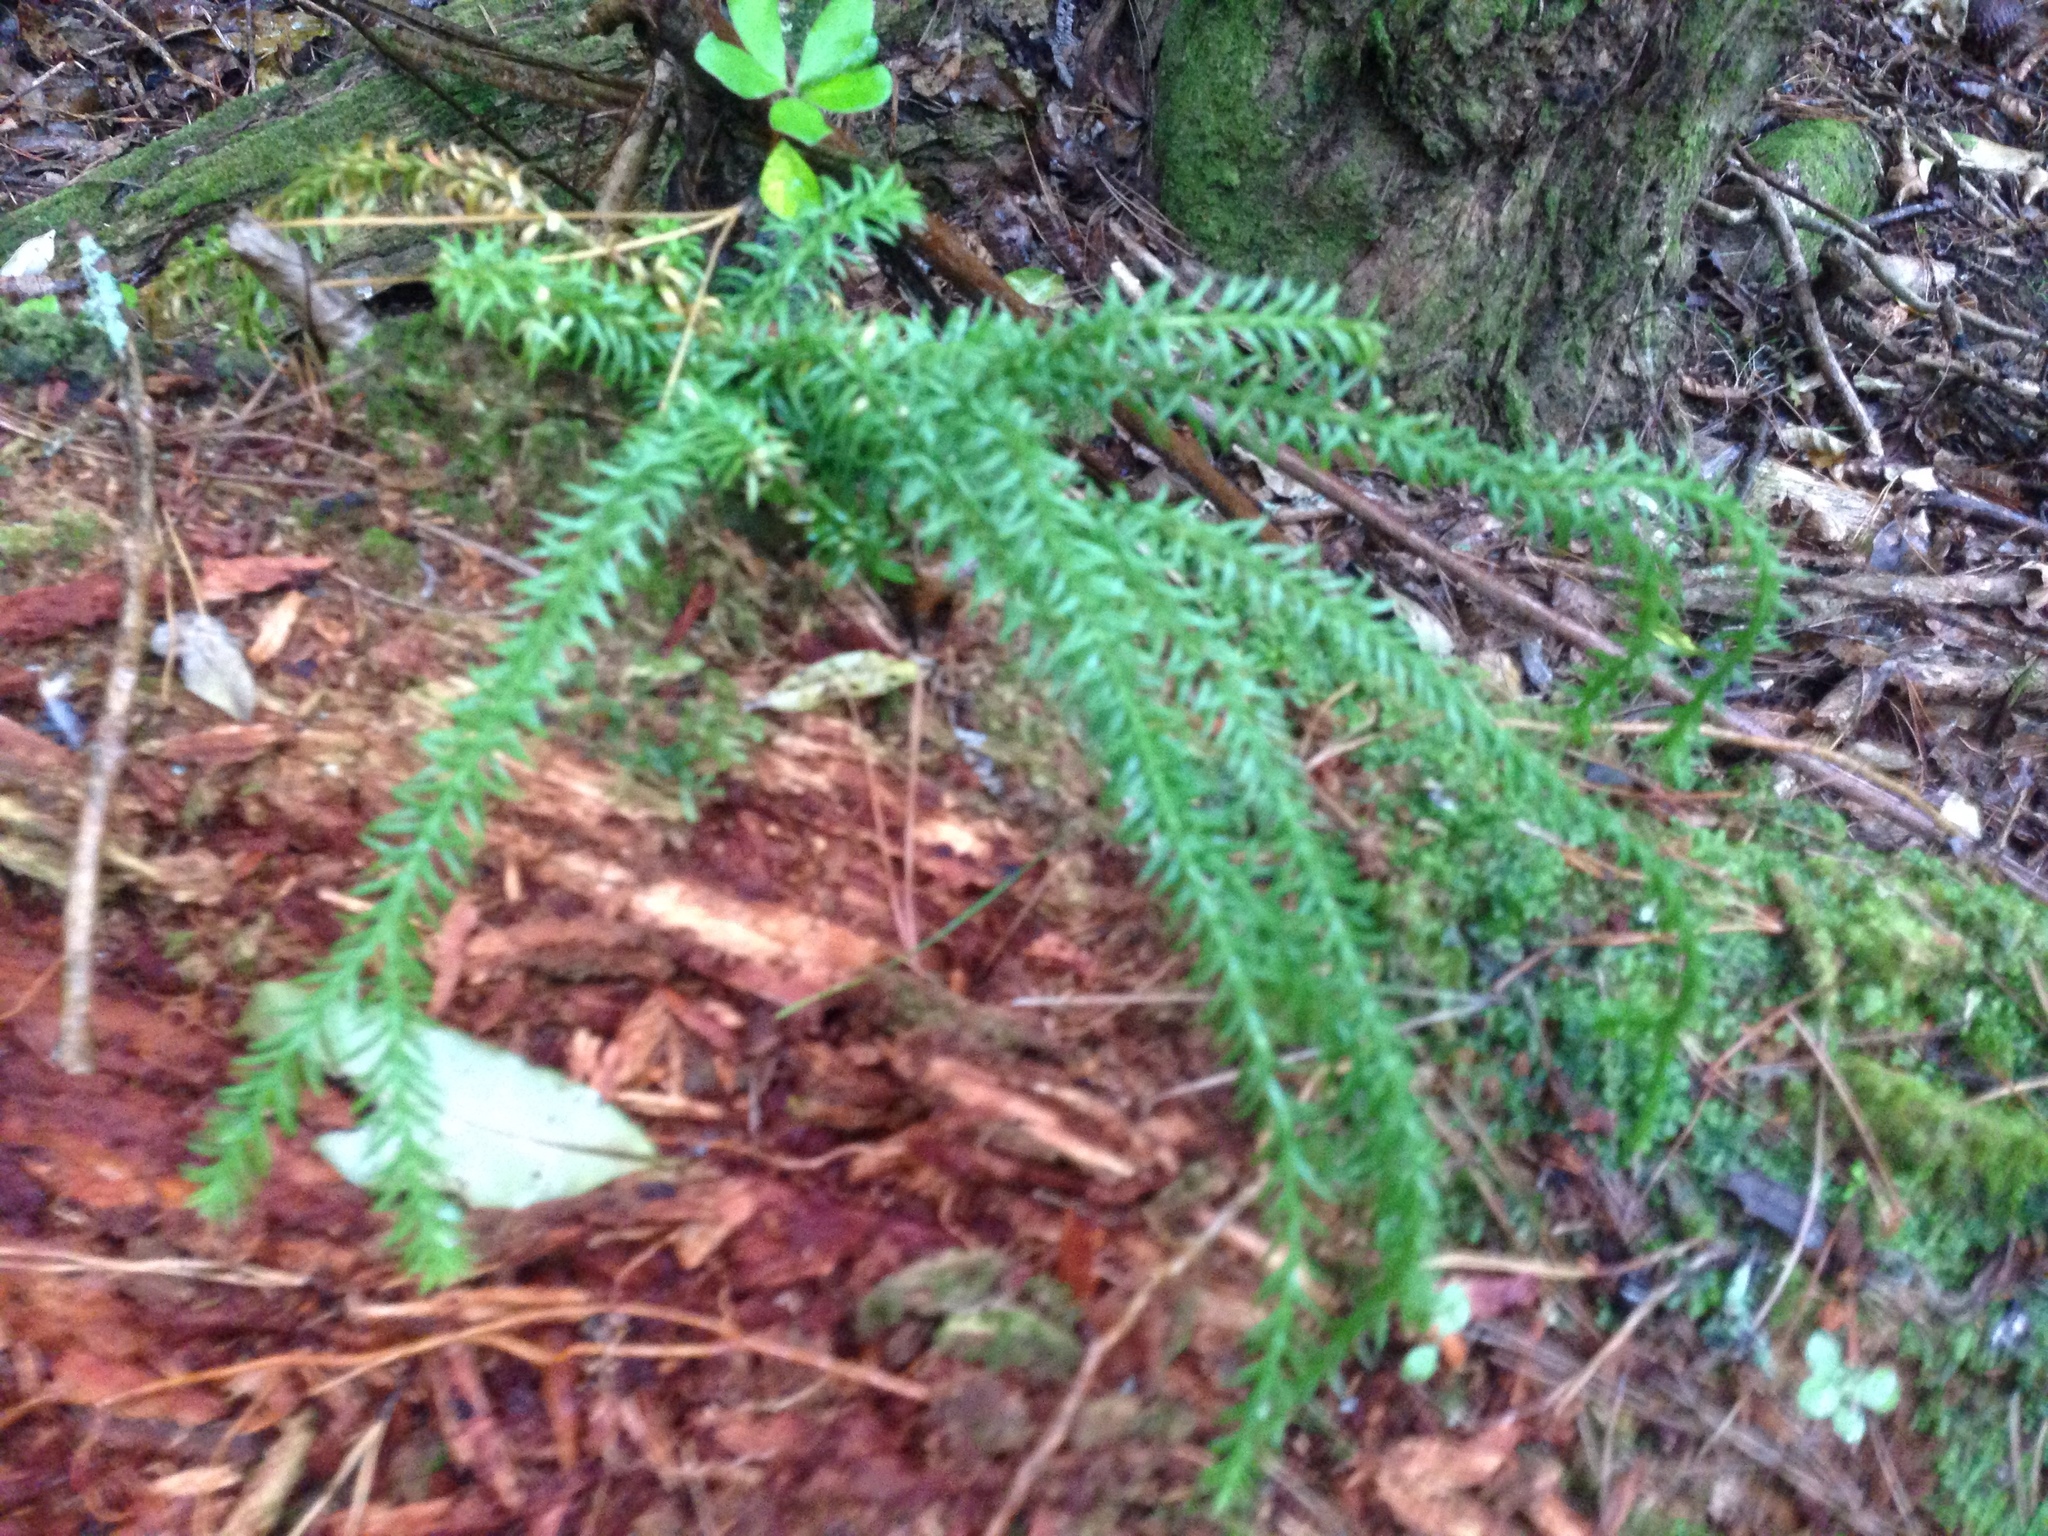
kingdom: Plantae
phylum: Tracheophyta
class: Lycopodiopsida
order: Lycopodiales
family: Lycopodiaceae
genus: Phlegmariurus
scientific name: Phlegmariurus varius
